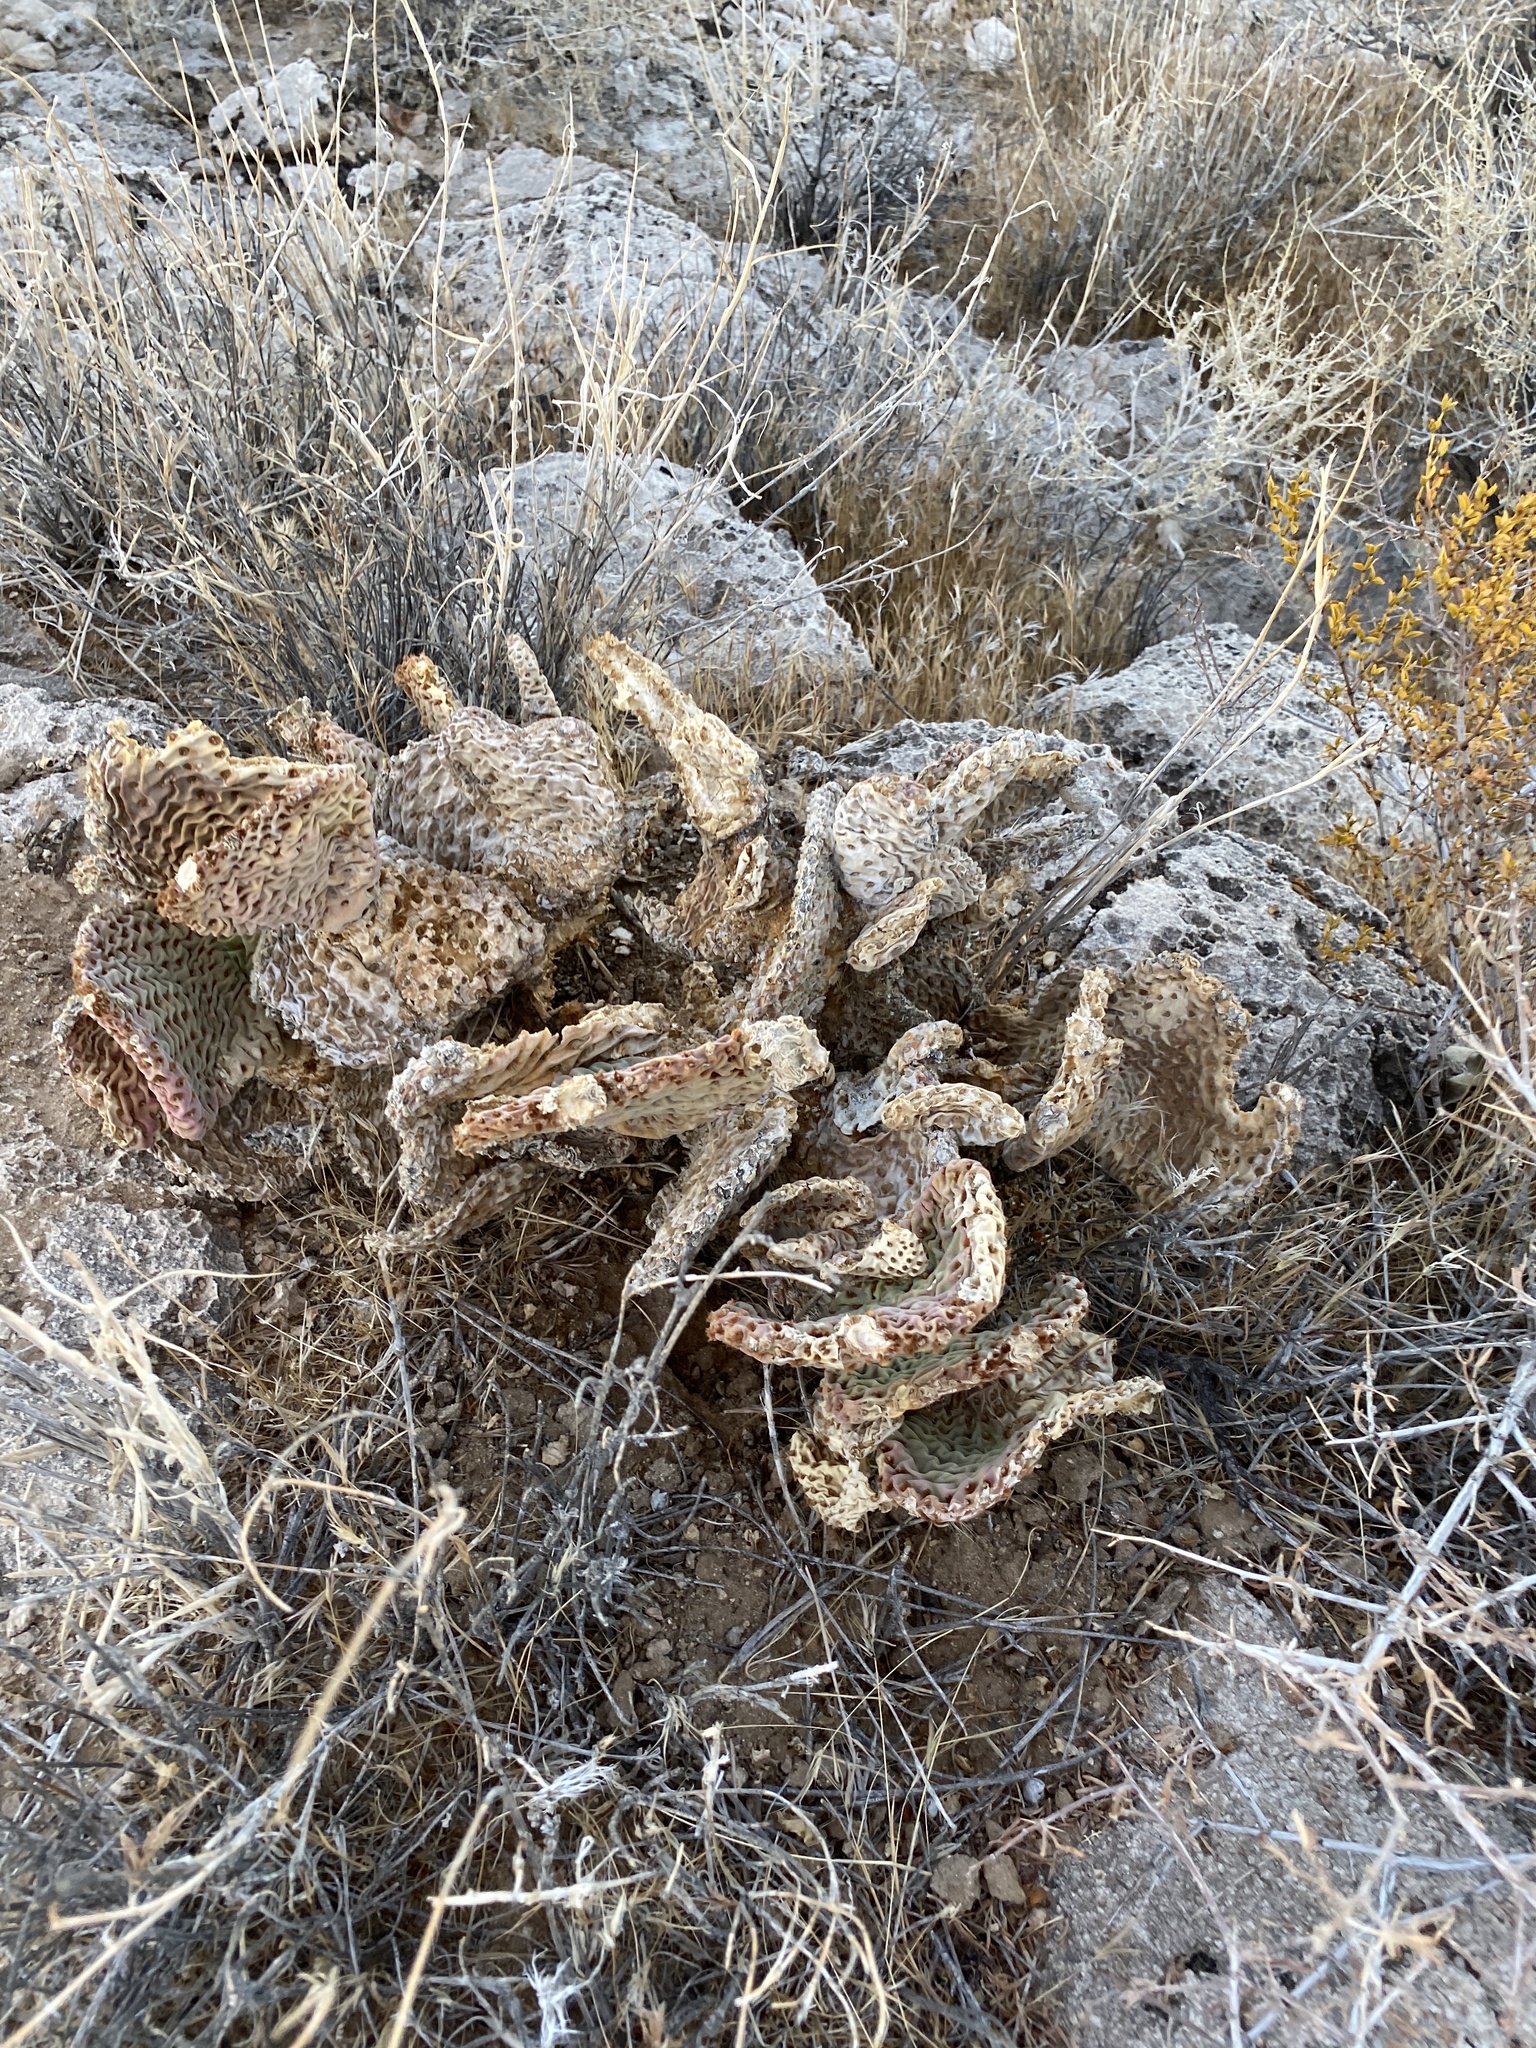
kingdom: Plantae
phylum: Tracheophyta
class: Magnoliopsida
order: Caryophyllales
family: Cactaceae
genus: Opuntia
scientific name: Opuntia basilaris
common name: Beavertail prickly-pear
